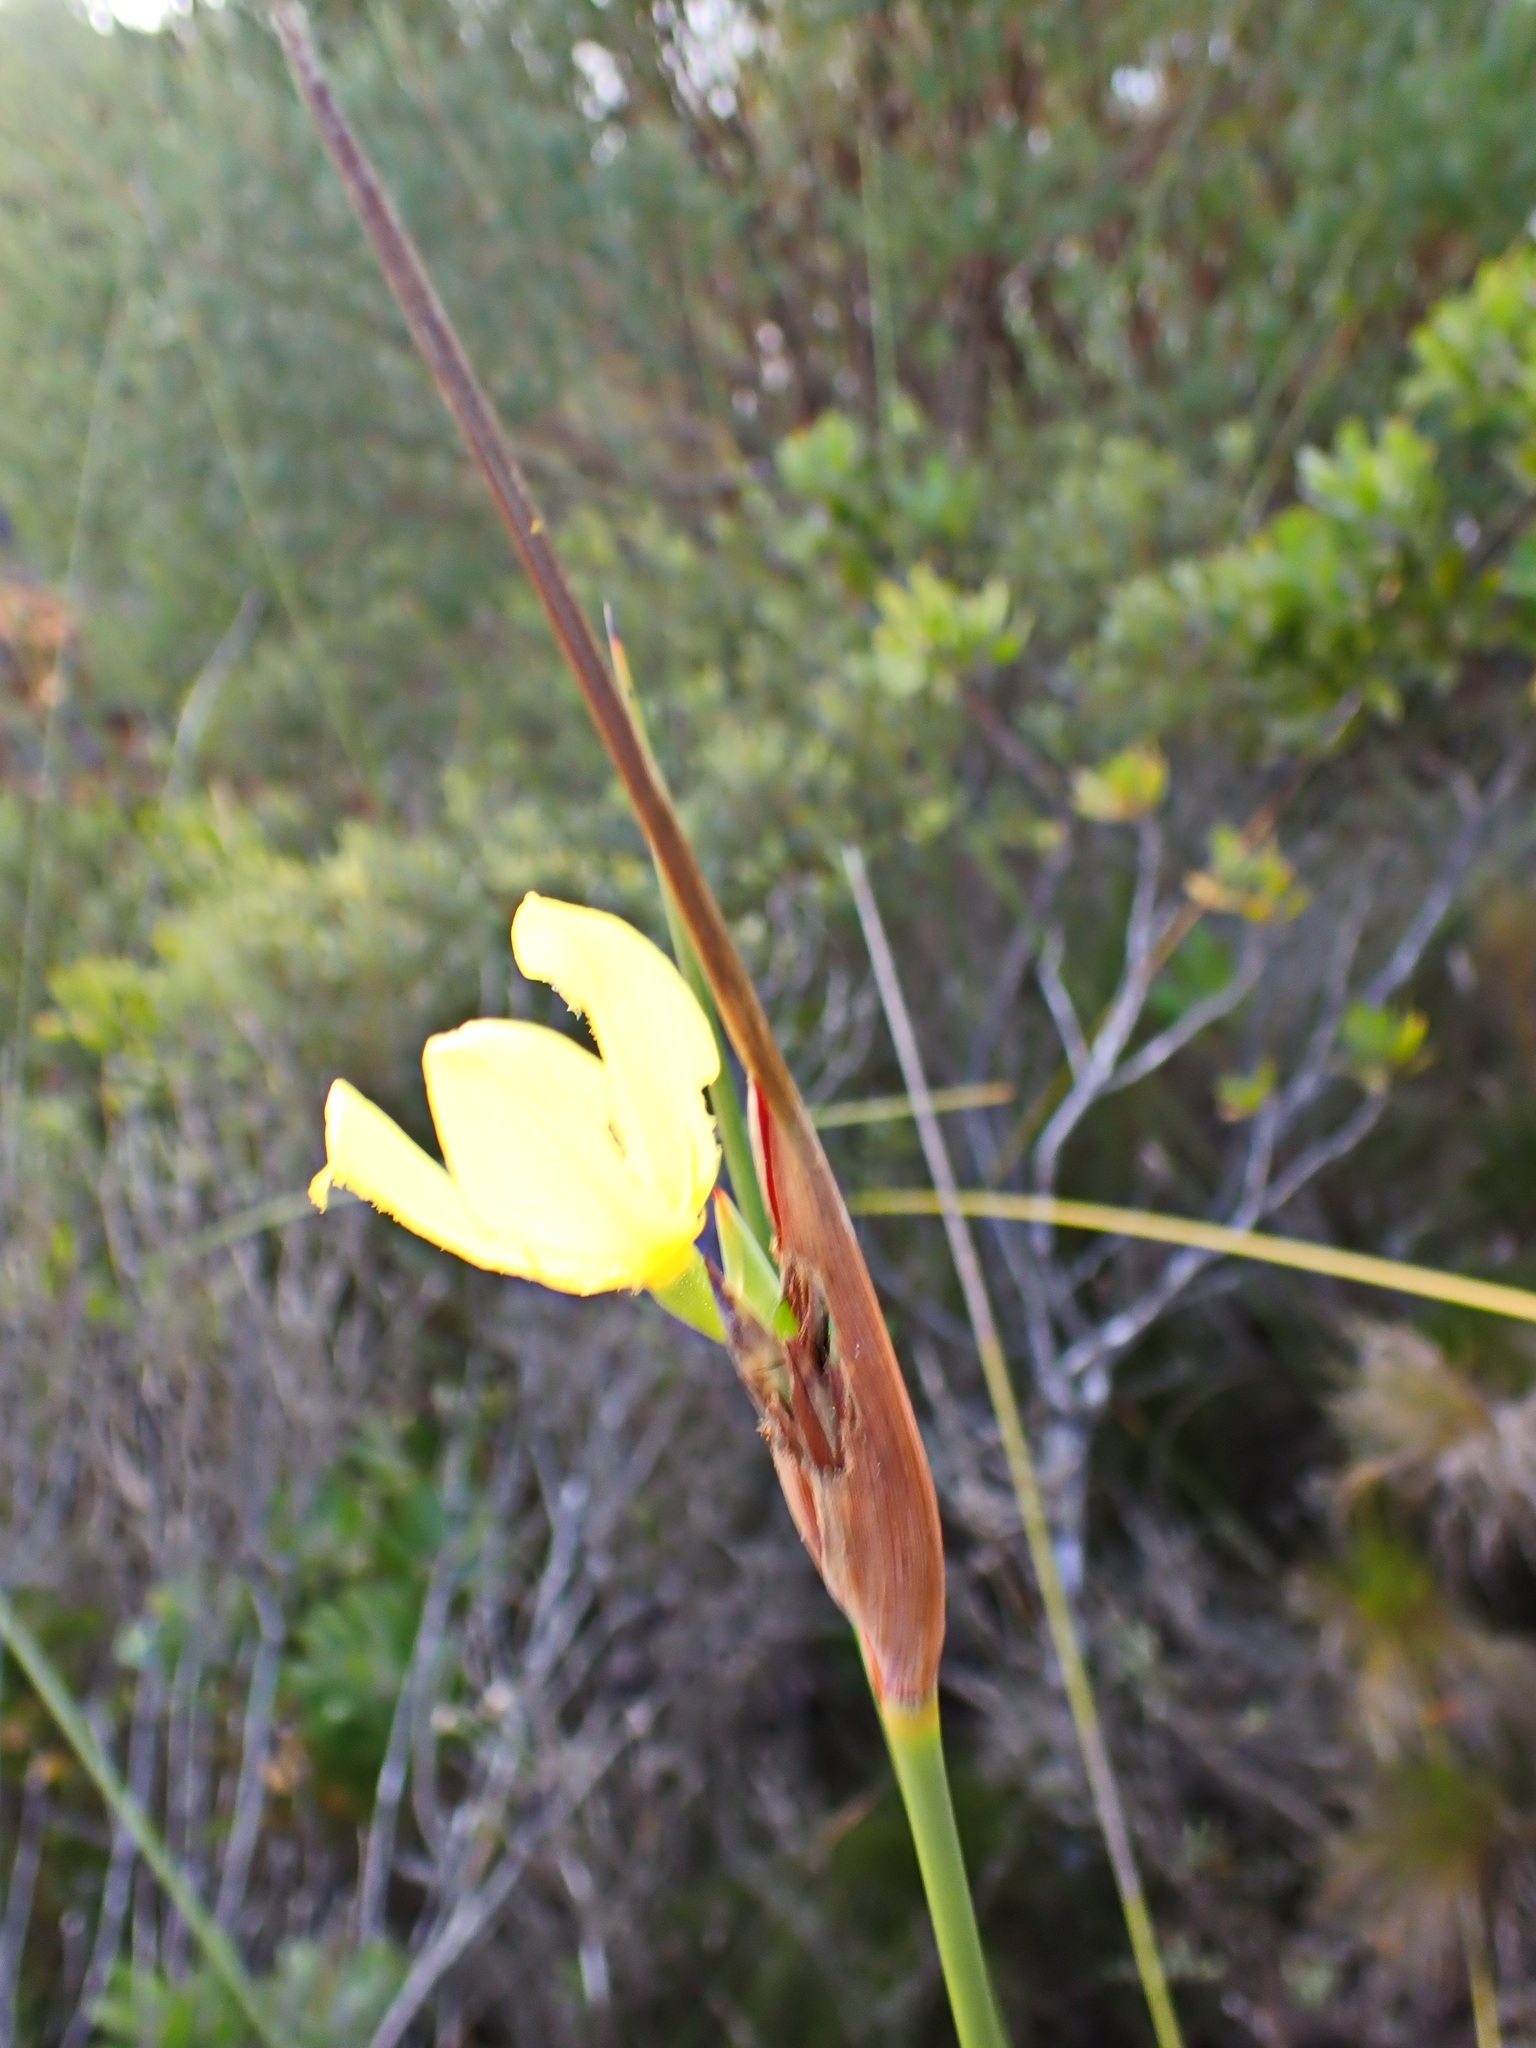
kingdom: Plantae
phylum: Tracheophyta
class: Liliopsida
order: Asparagales
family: Iridaceae
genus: Bobartia
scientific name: Bobartia macrospatha
